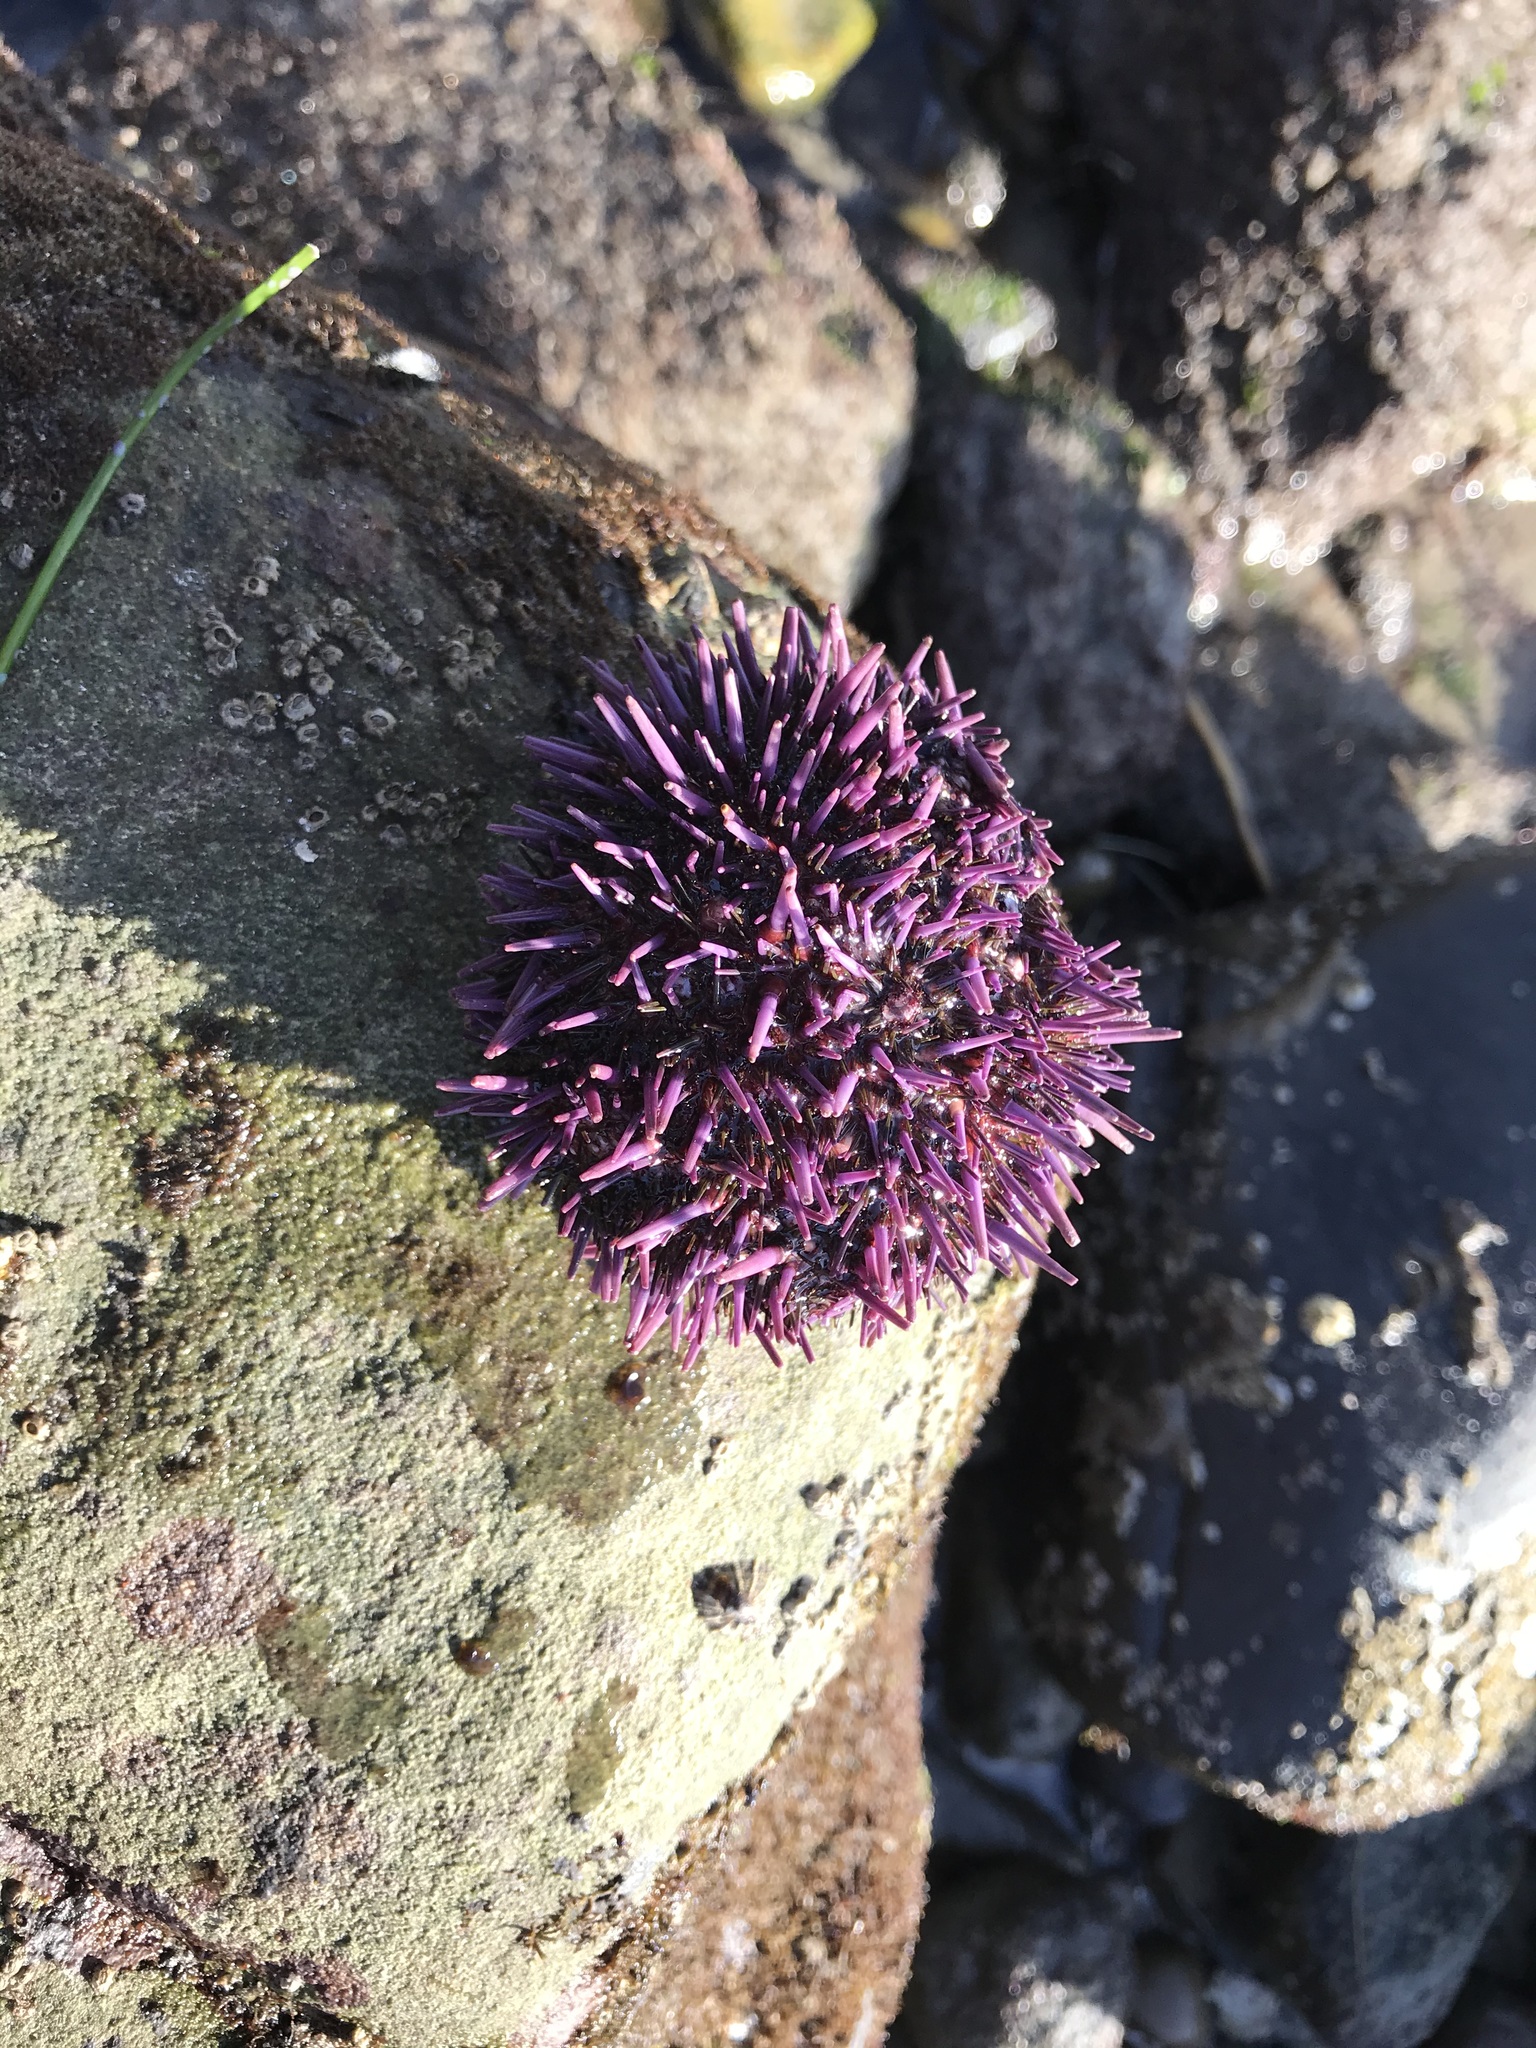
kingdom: Animalia
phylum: Echinodermata
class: Echinoidea
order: Camarodonta
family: Strongylocentrotidae
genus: Strongylocentrotus
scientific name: Strongylocentrotus purpuratus
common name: Purple sea urchin
